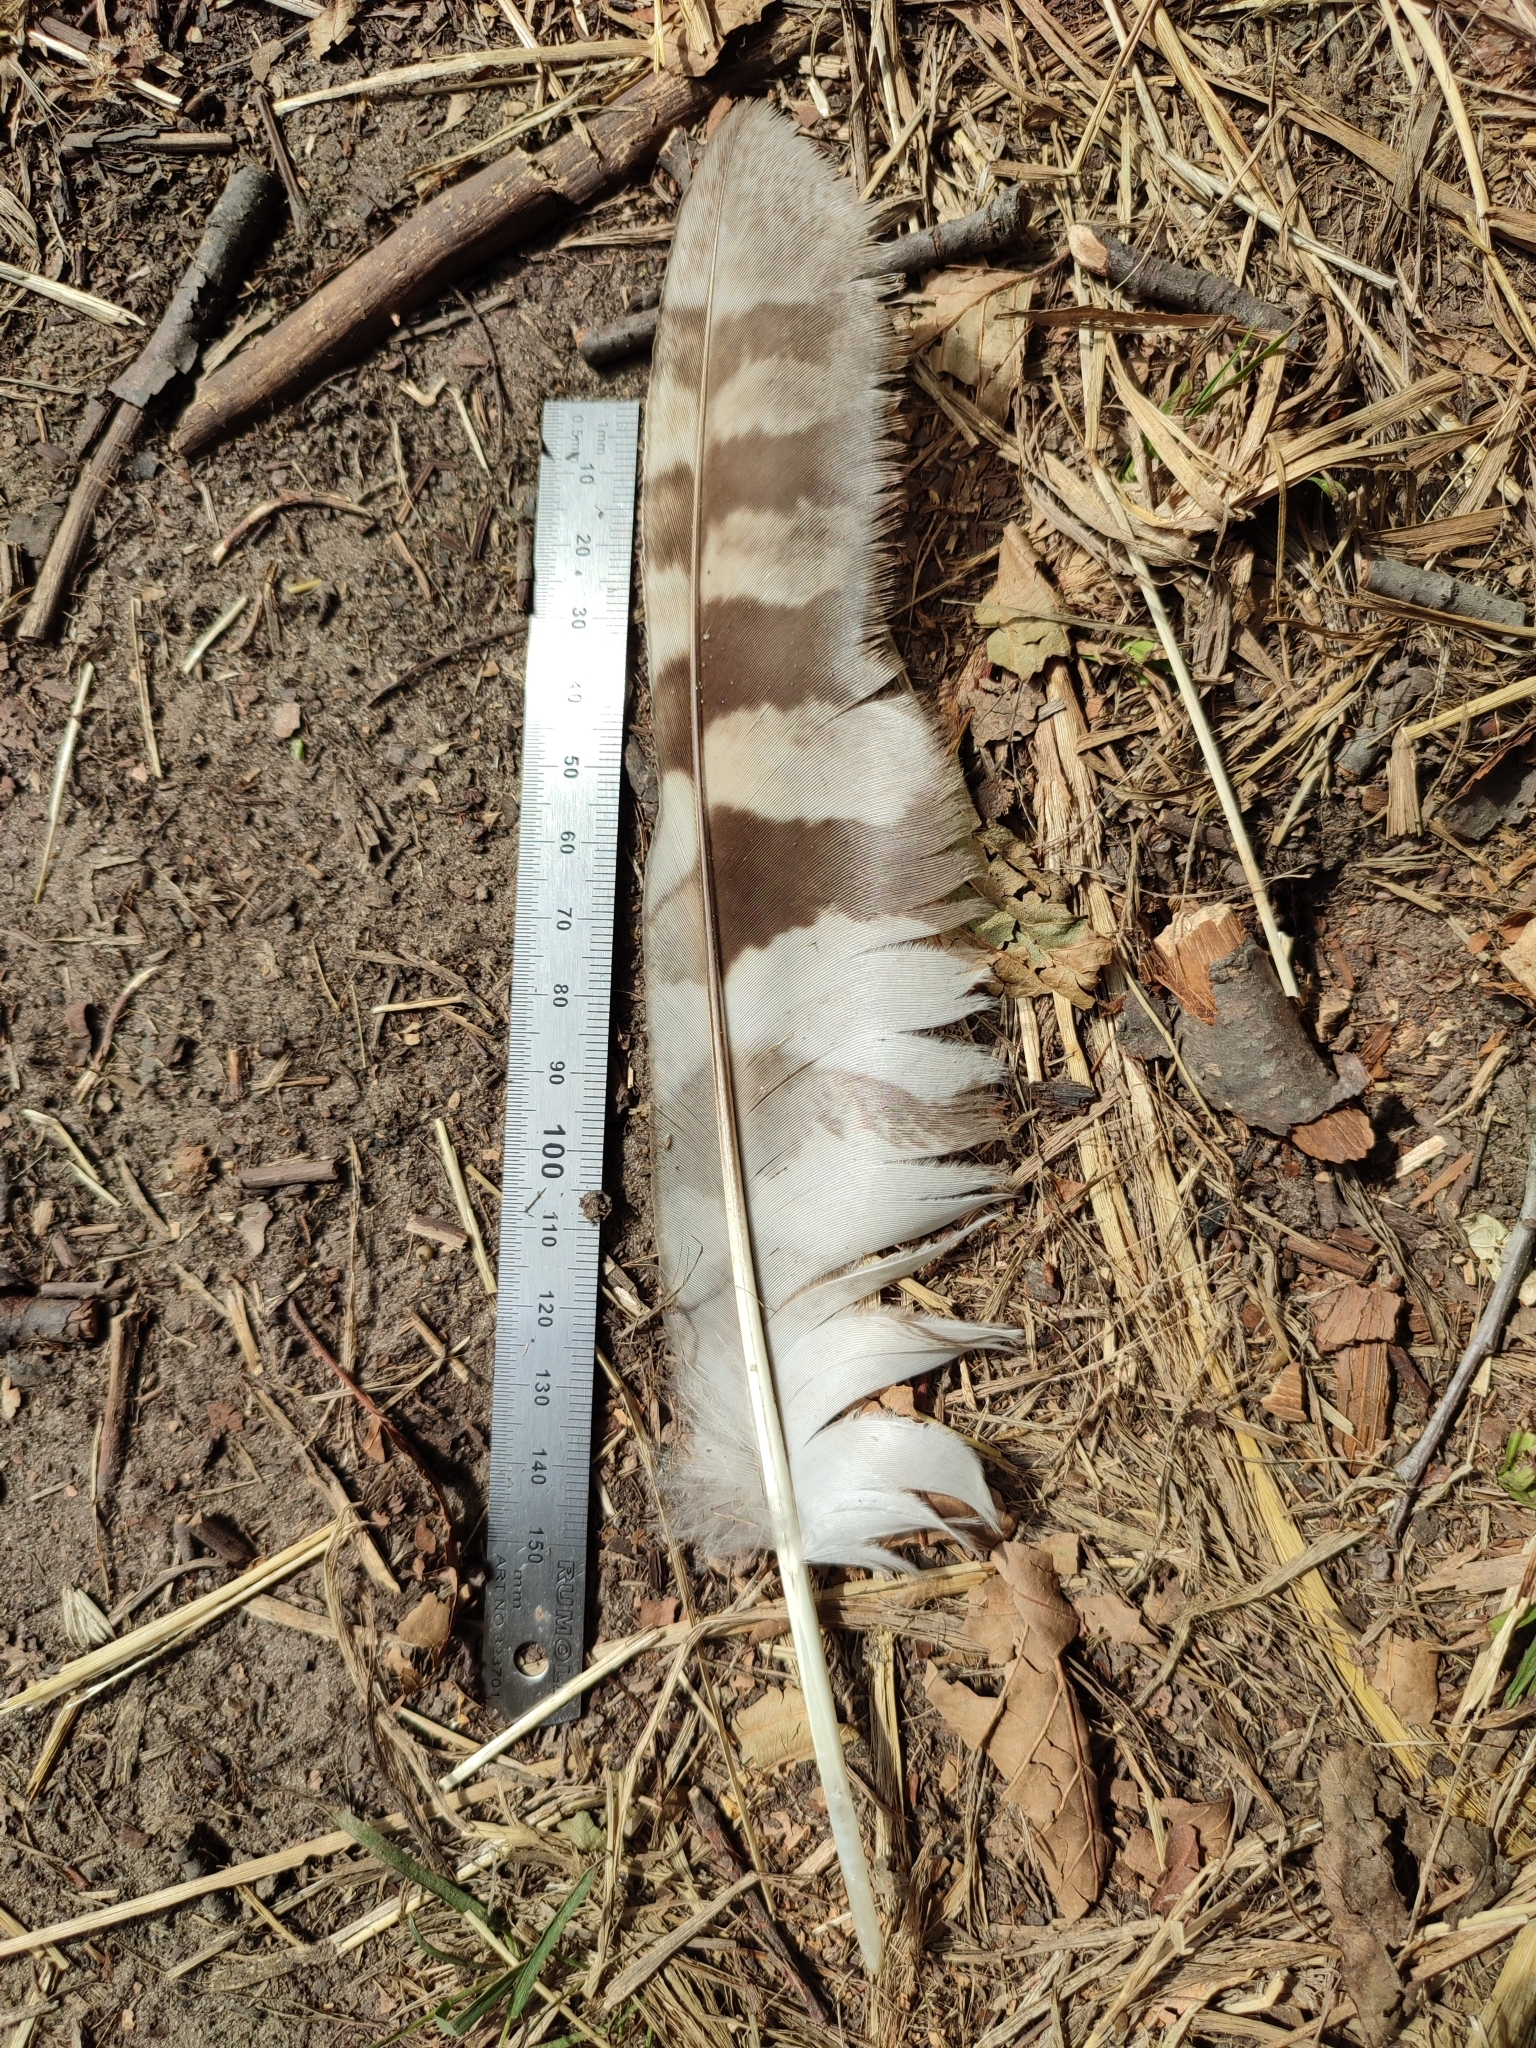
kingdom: Animalia
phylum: Chordata
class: Aves
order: Strigiformes
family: Strigidae
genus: Strix
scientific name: Strix aluco
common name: Tawny owl
